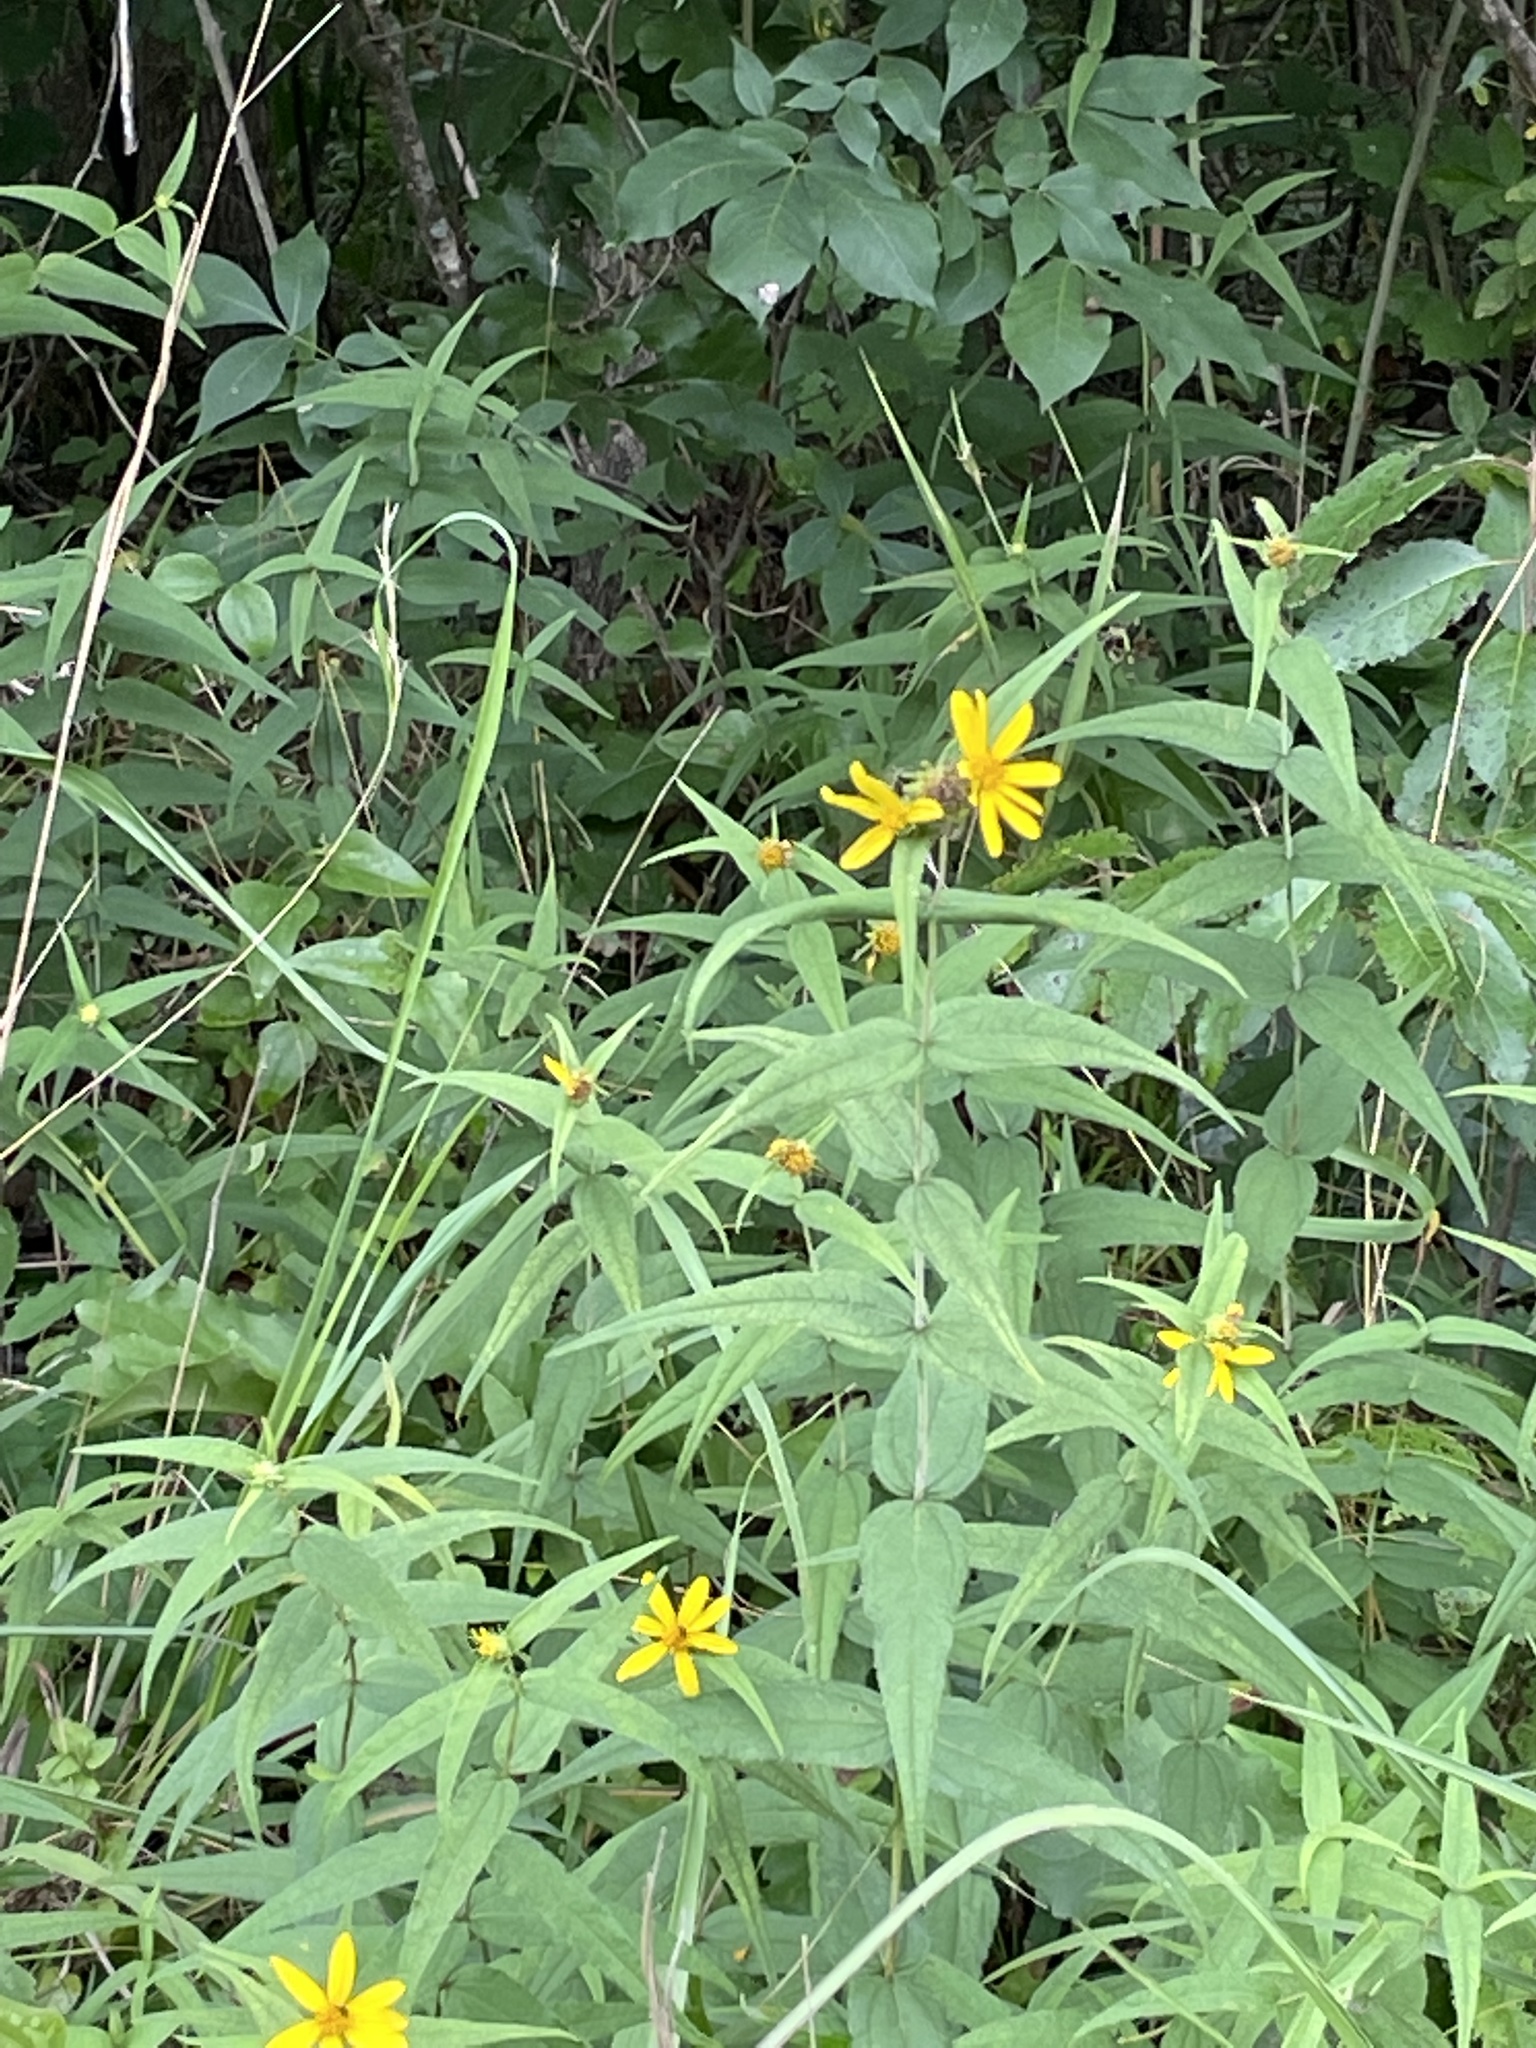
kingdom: Plantae
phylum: Tracheophyta
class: Magnoliopsida
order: Asterales
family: Asteraceae
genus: Helianthus
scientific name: Helianthus divaricatus
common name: Divergent sunflower
